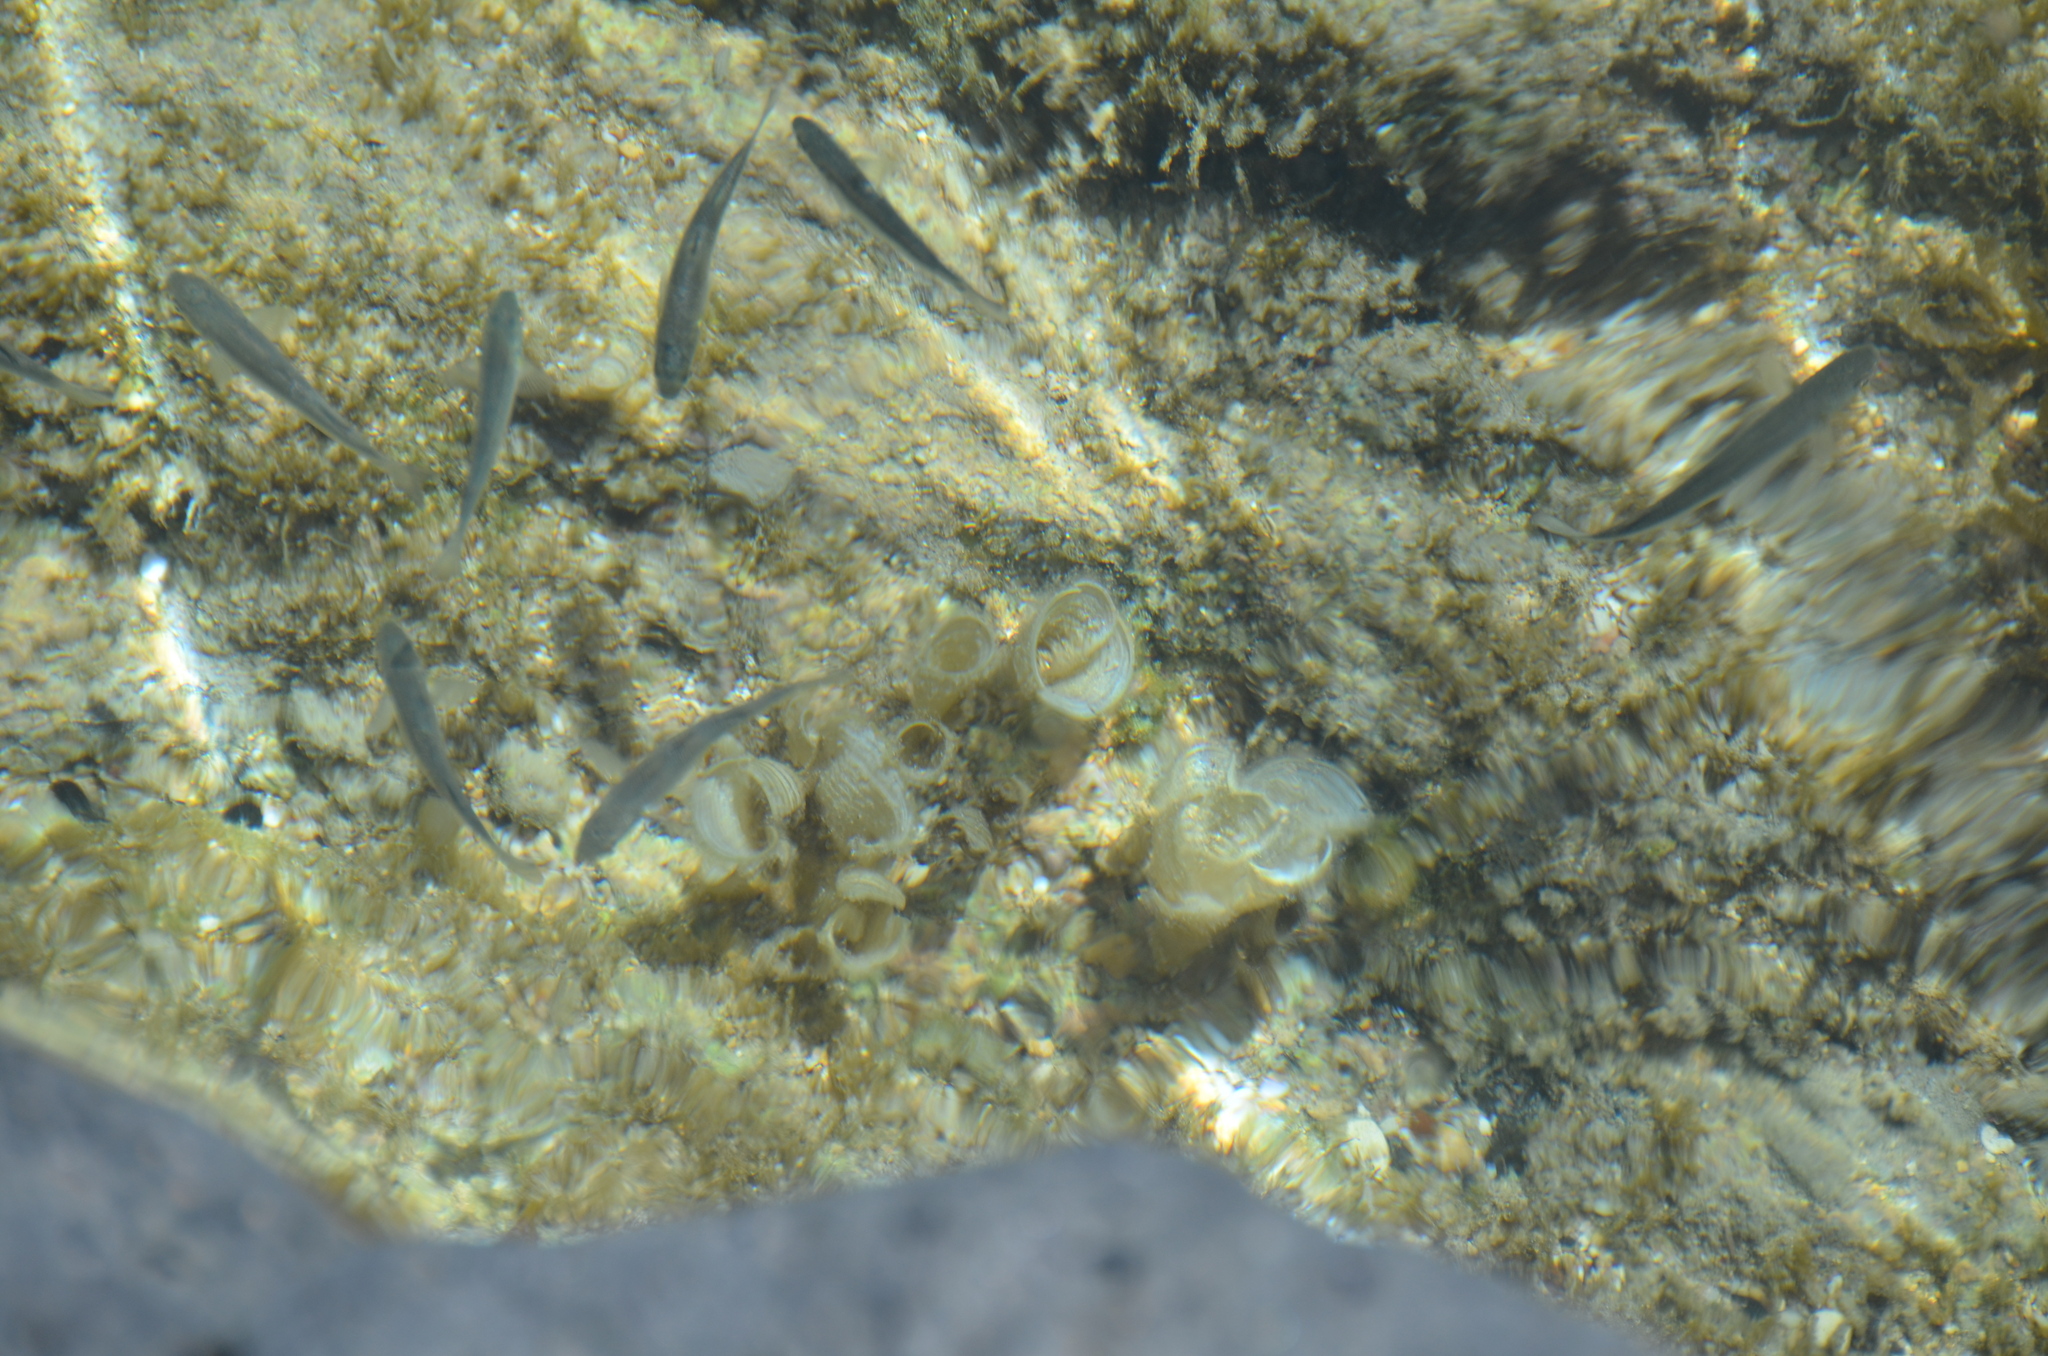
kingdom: Animalia
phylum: Chordata
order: Mugiliformes
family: Mugilidae
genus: Neomyxus
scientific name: Neomyxus leuciscus
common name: Acute-jawed mullet
